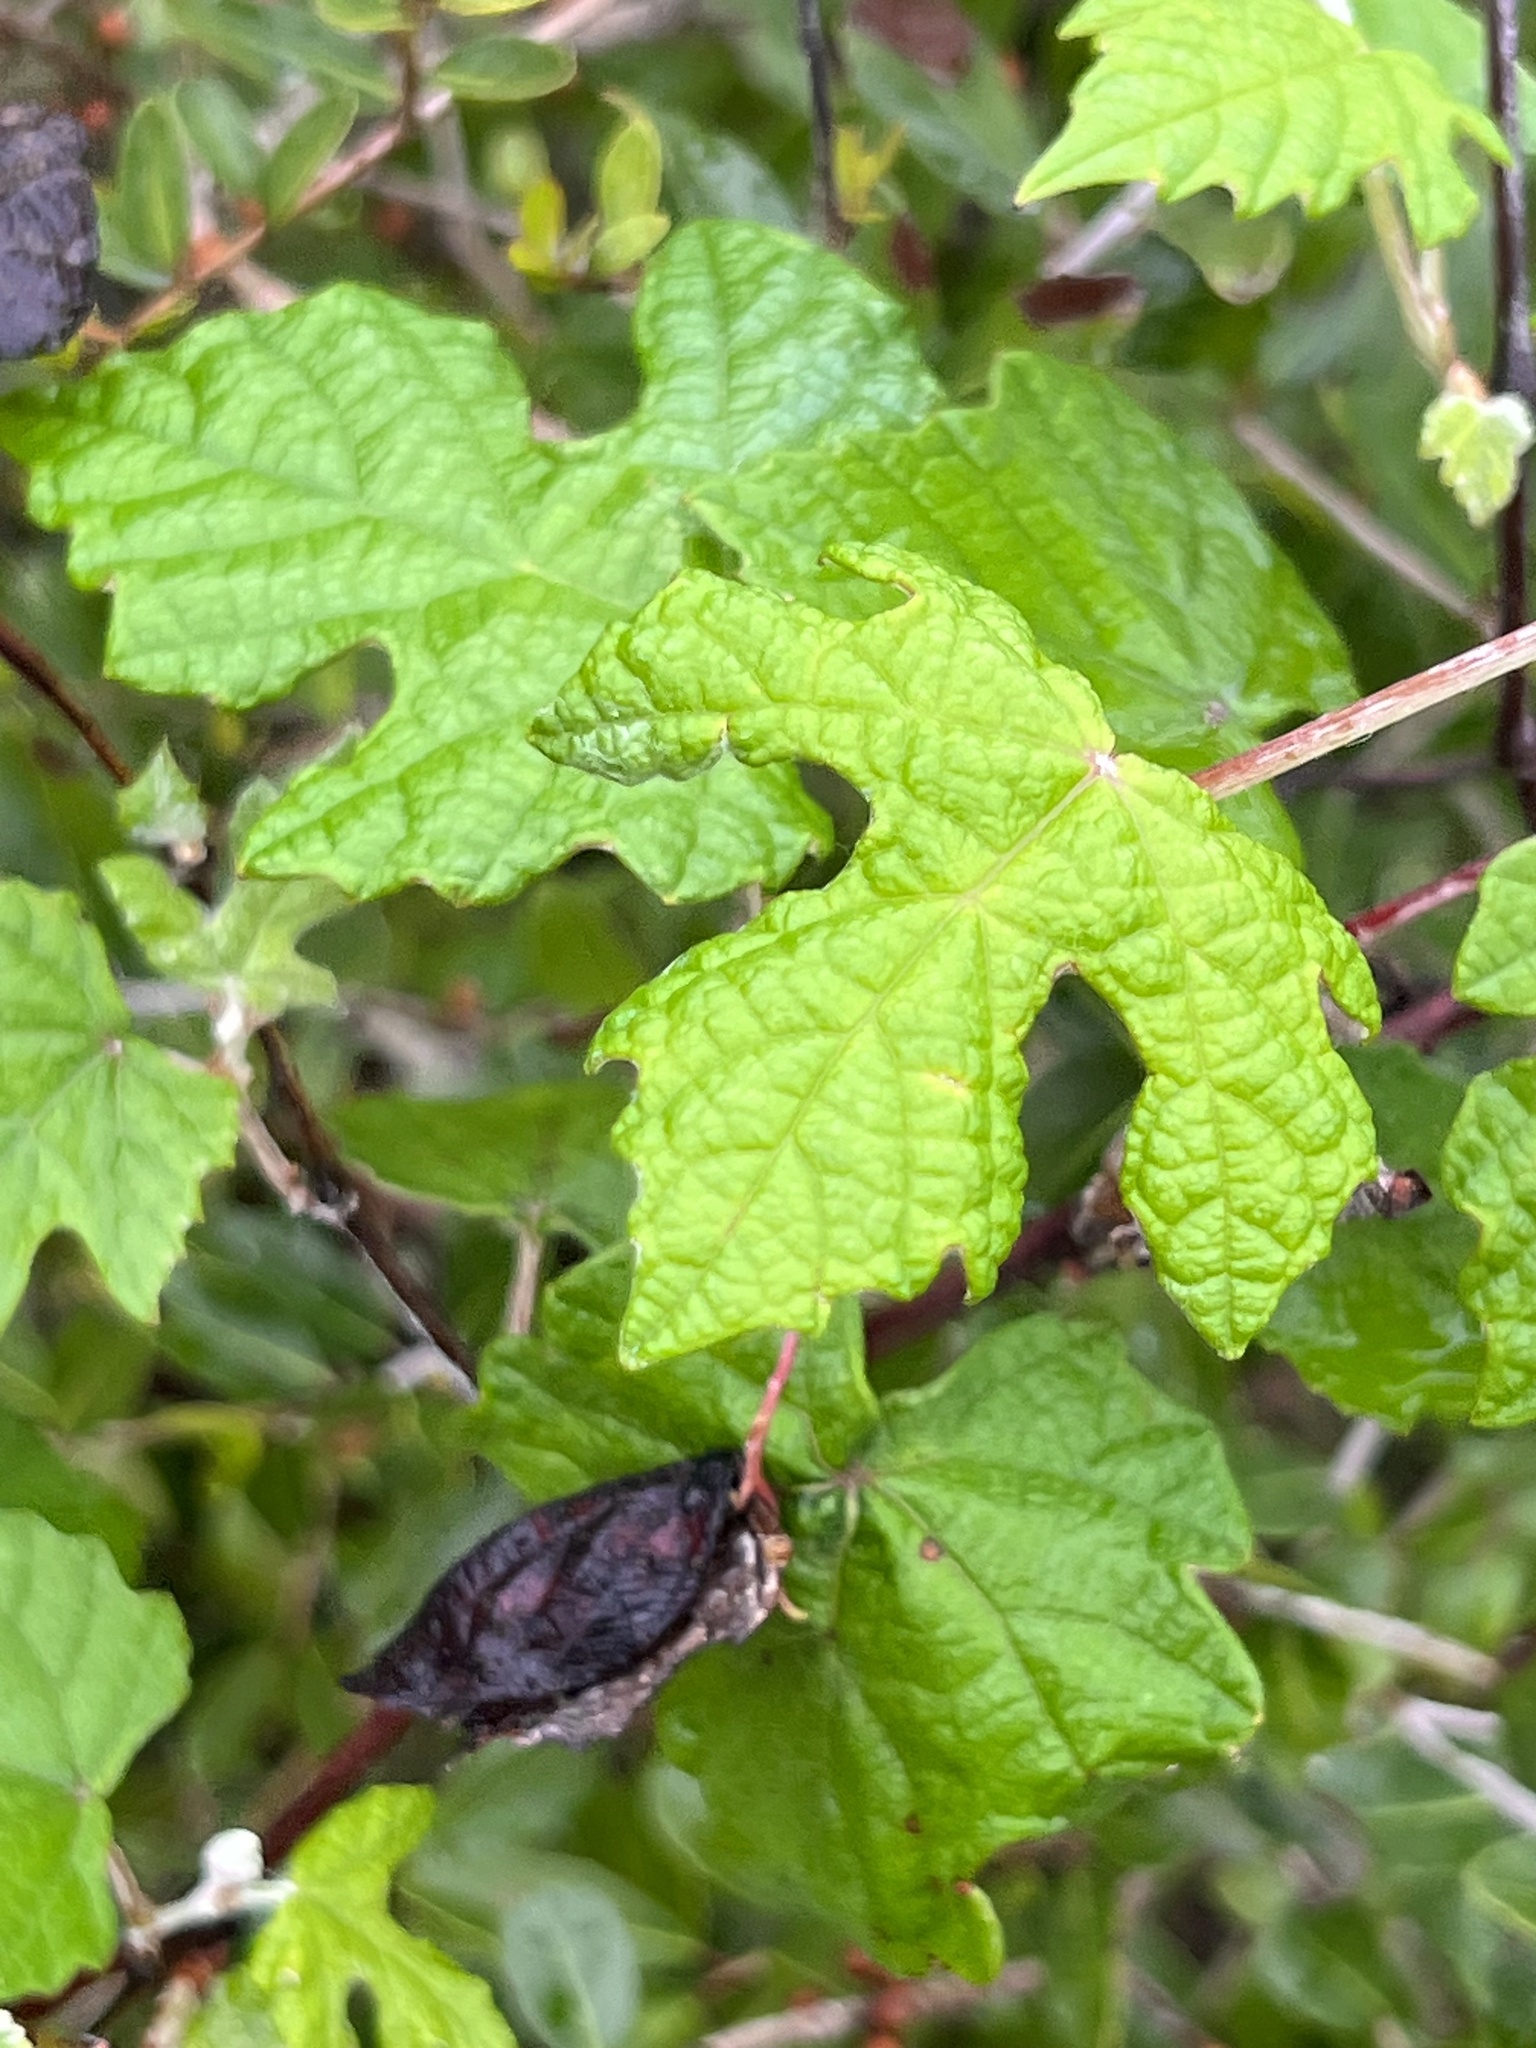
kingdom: Plantae
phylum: Tracheophyta
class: Magnoliopsida
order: Vitales
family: Vitaceae
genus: Vitis
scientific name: Vitis mustangensis
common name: Mustang grape
